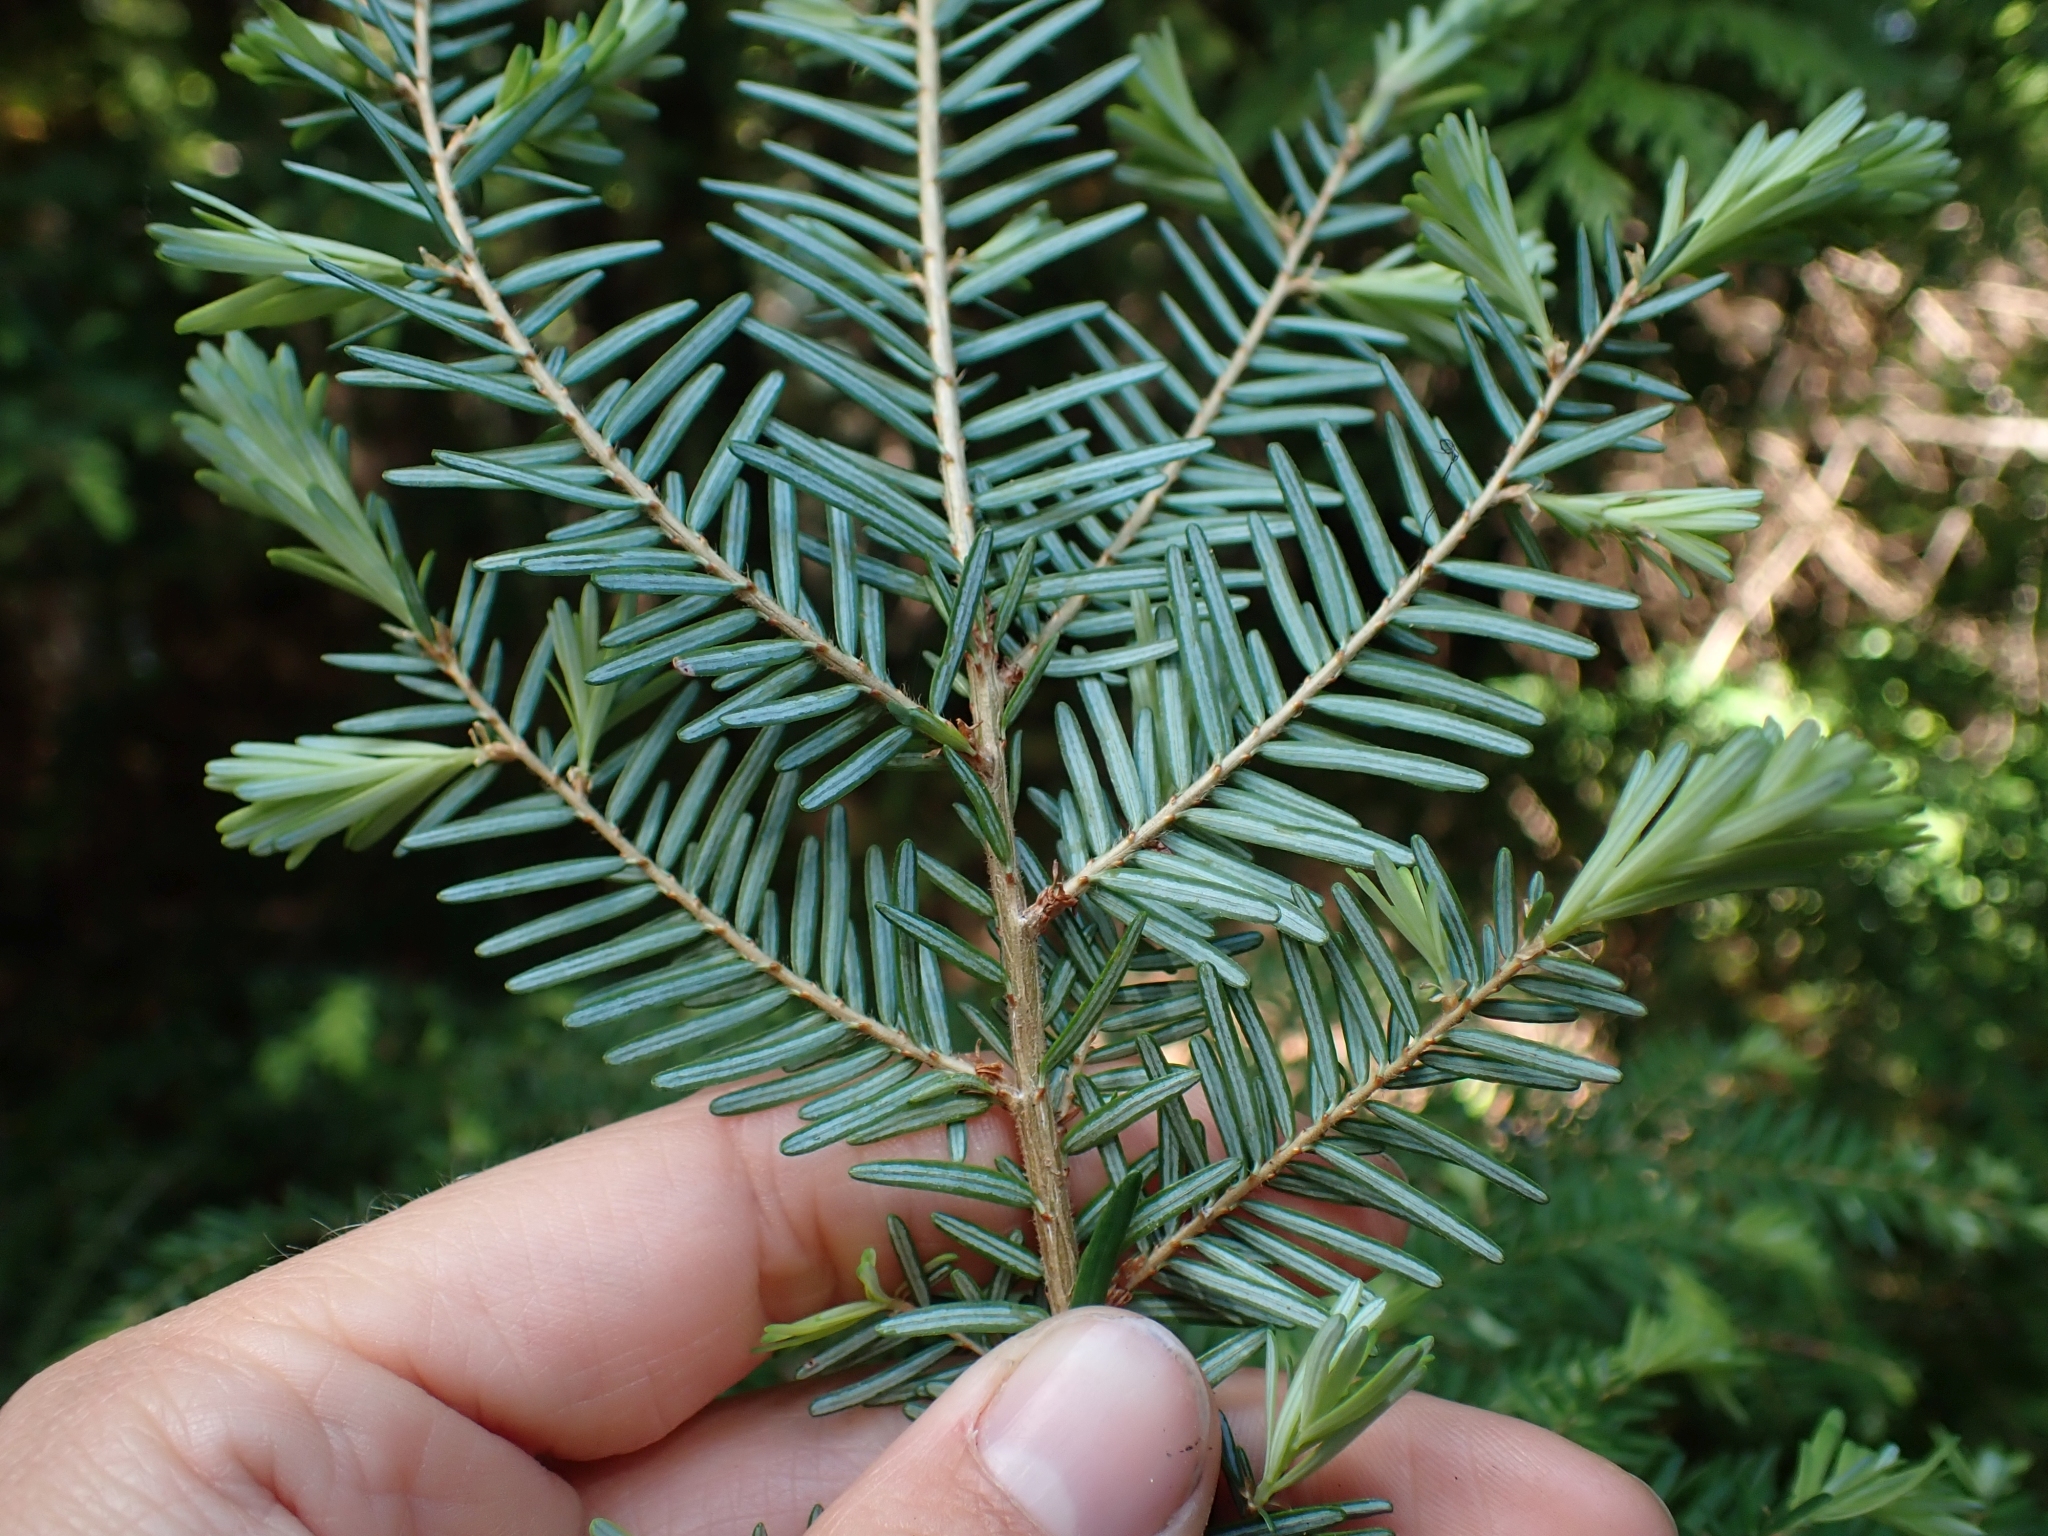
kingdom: Plantae
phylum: Tracheophyta
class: Pinopsida
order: Pinales
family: Pinaceae
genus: Tsuga
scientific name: Tsuga heterophylla
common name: Western hemlock
